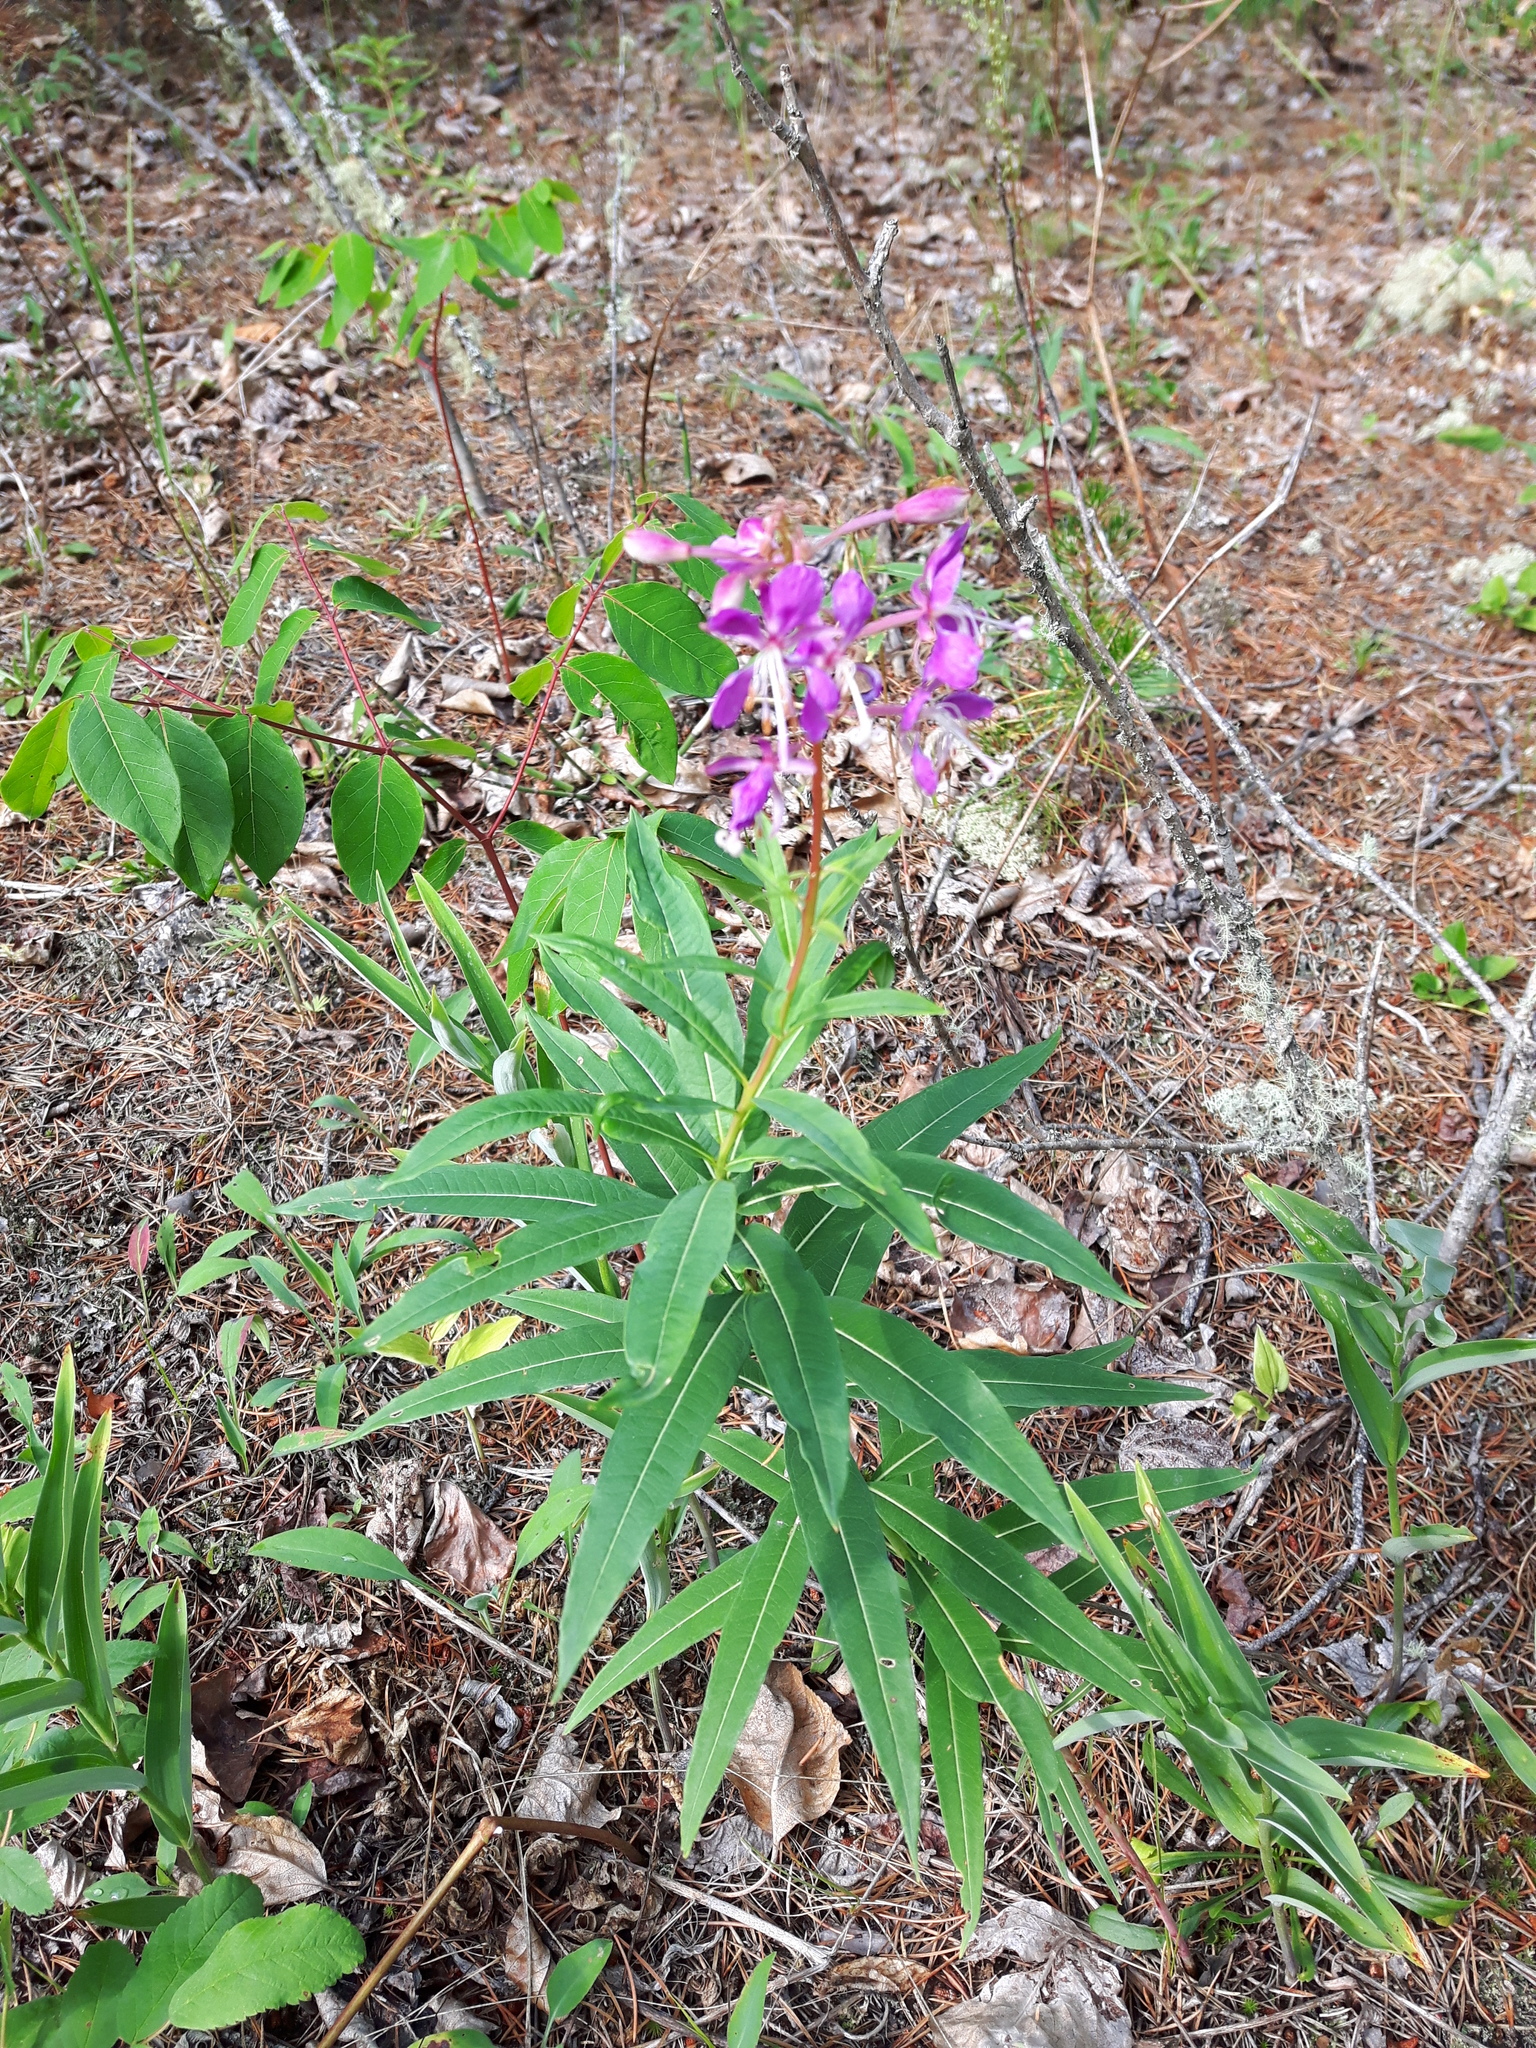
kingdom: Plantae
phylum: Tracheophyta
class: Magnoliopsida
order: Myrtales
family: Onagraceae
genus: Chamaenerion
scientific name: Chamaenerion angustifolium
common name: Fireweed
